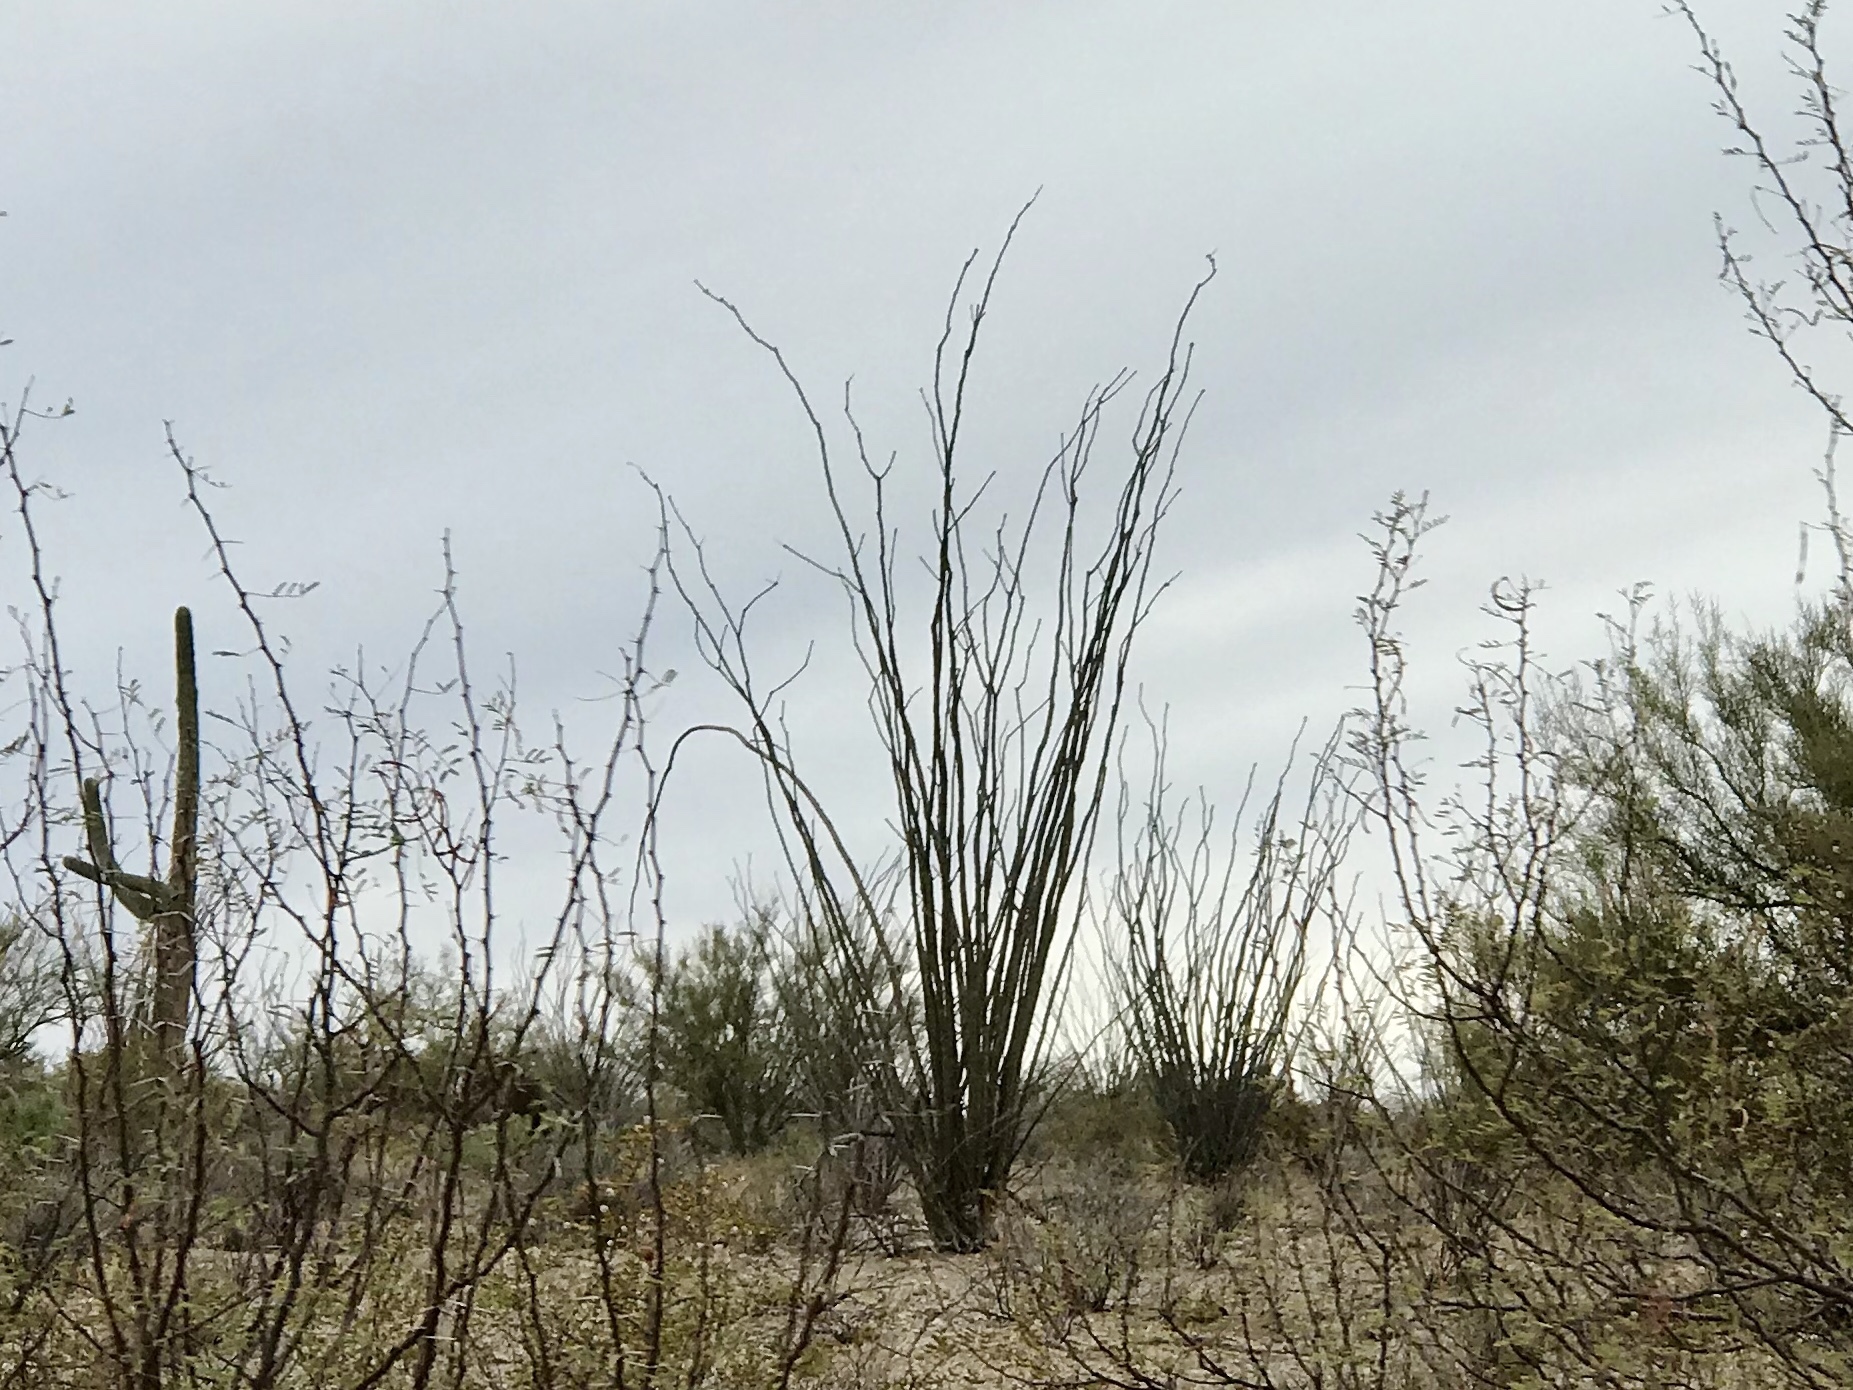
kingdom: Plantae
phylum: Tracheophyta
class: Magnoliopsida
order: Ericales
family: Fouquieriaceae
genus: Fouquieria
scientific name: Fouquieria splendens
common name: Vine-cactus
